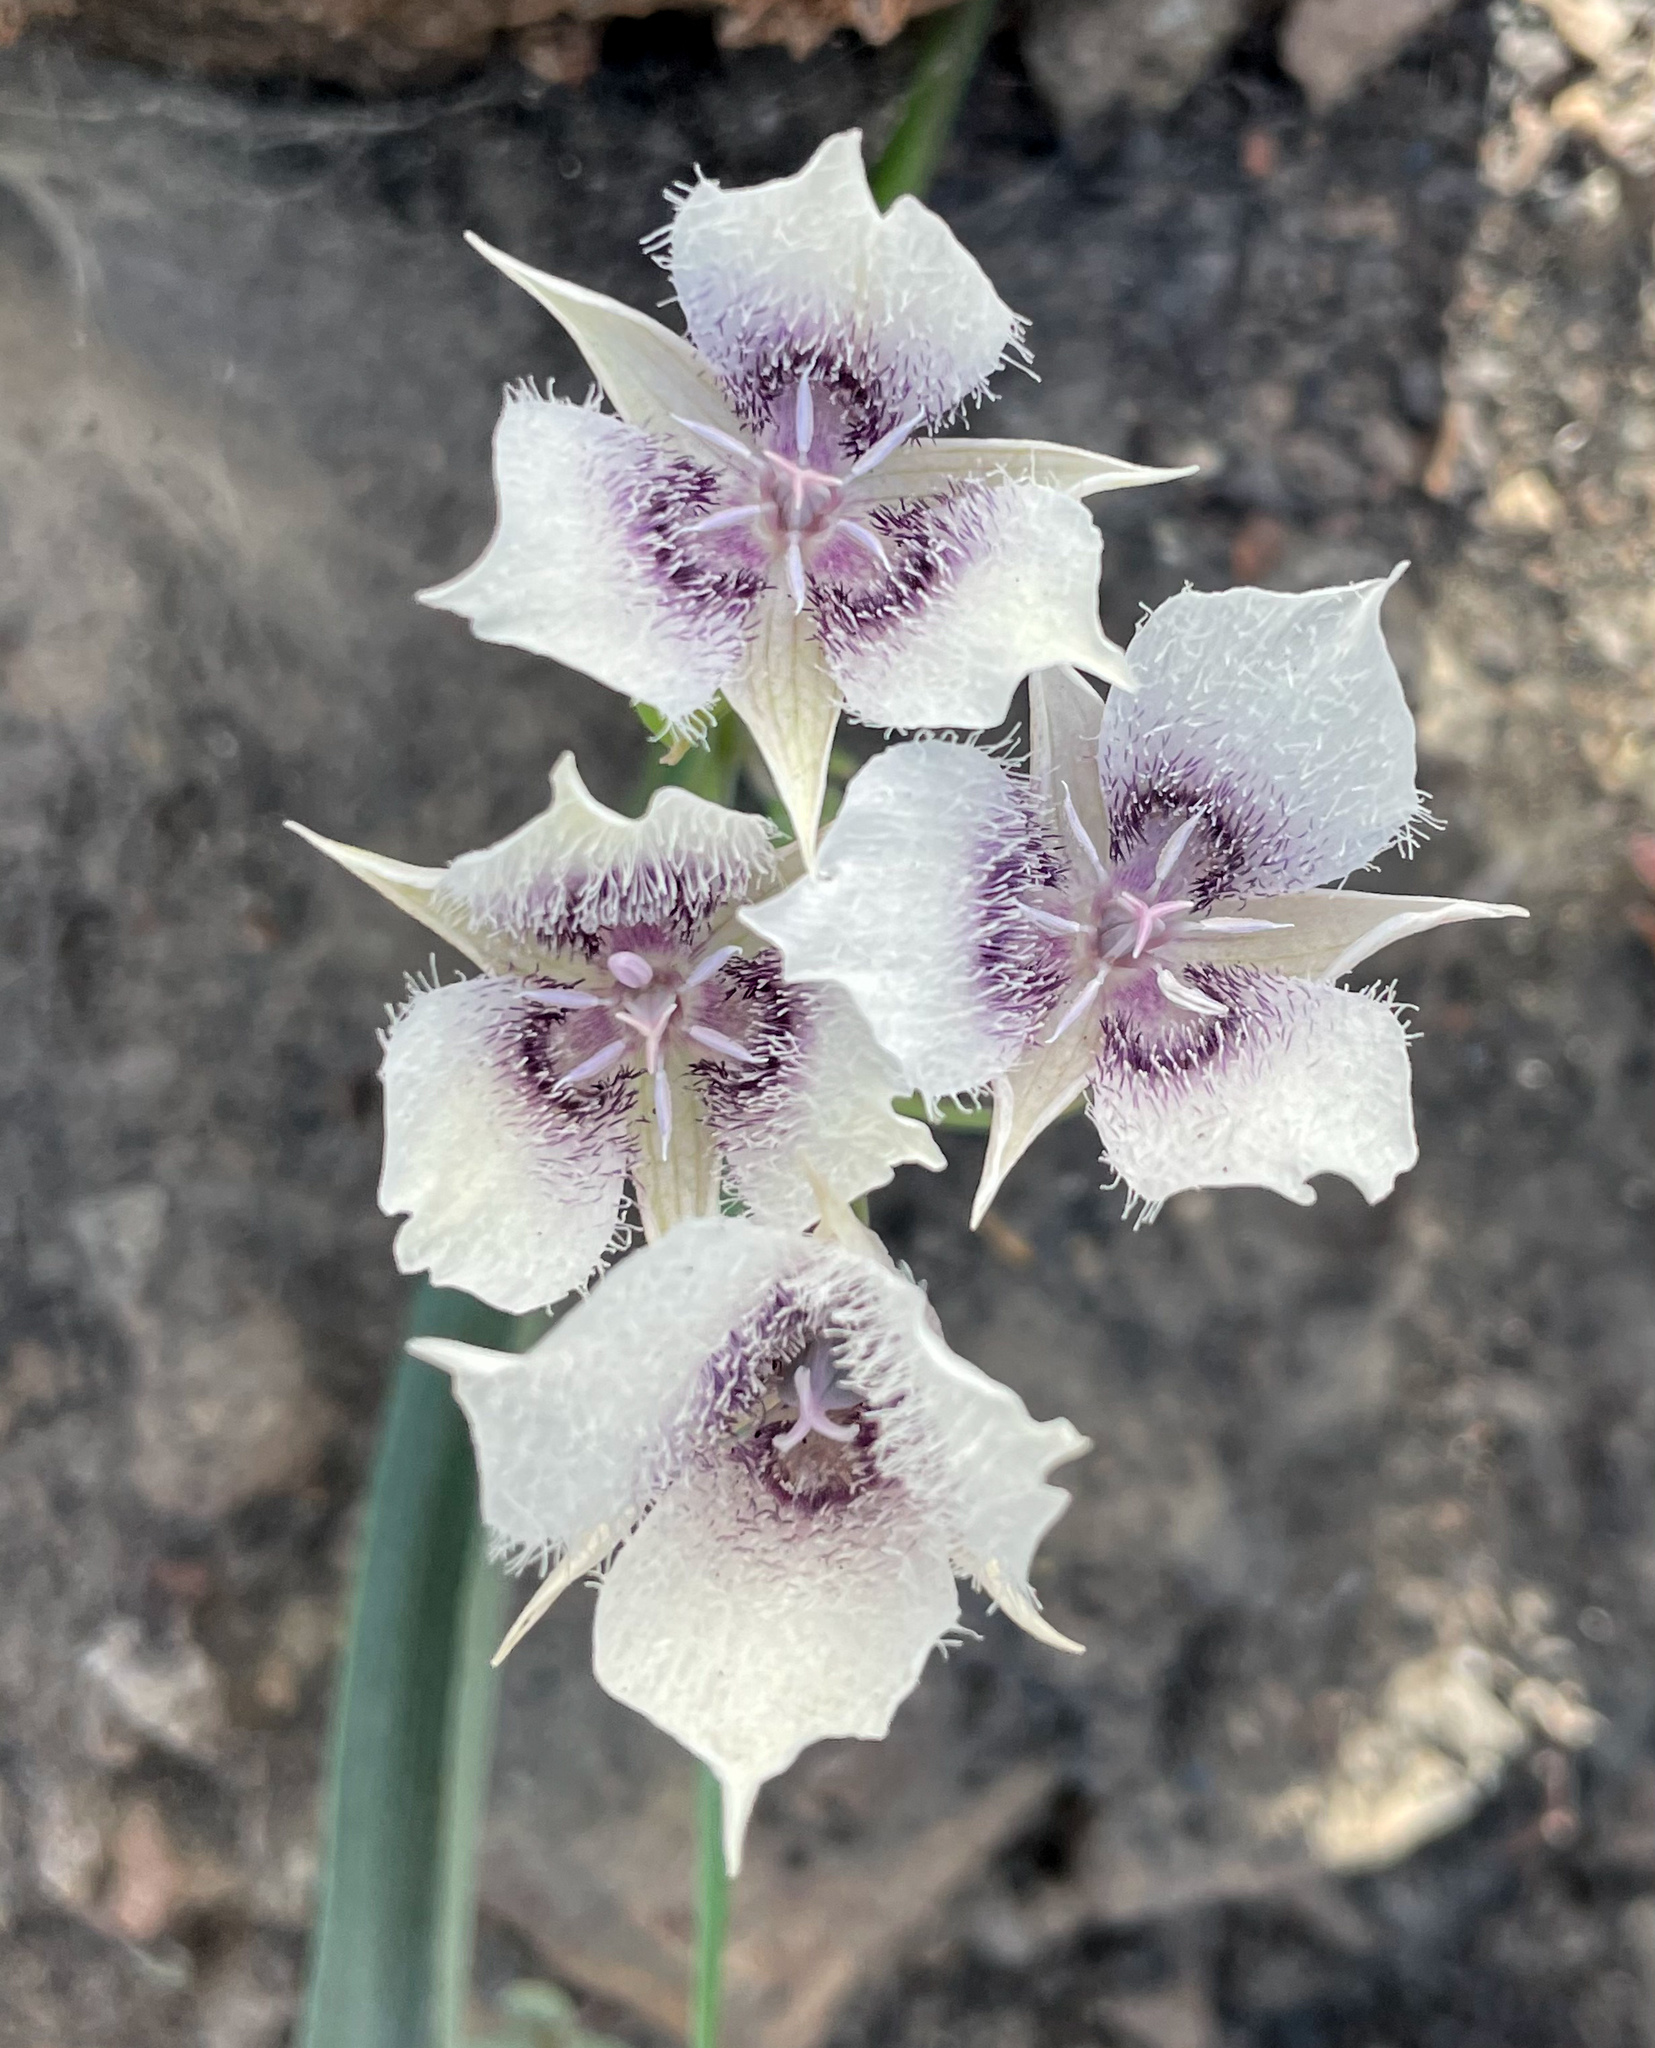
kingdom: Plantae
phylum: Tracheophyta
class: Liliopsida
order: Liliales
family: Liliaceae
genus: Calochortus
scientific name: Calochortus tolmiei
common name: Pussy-ears
